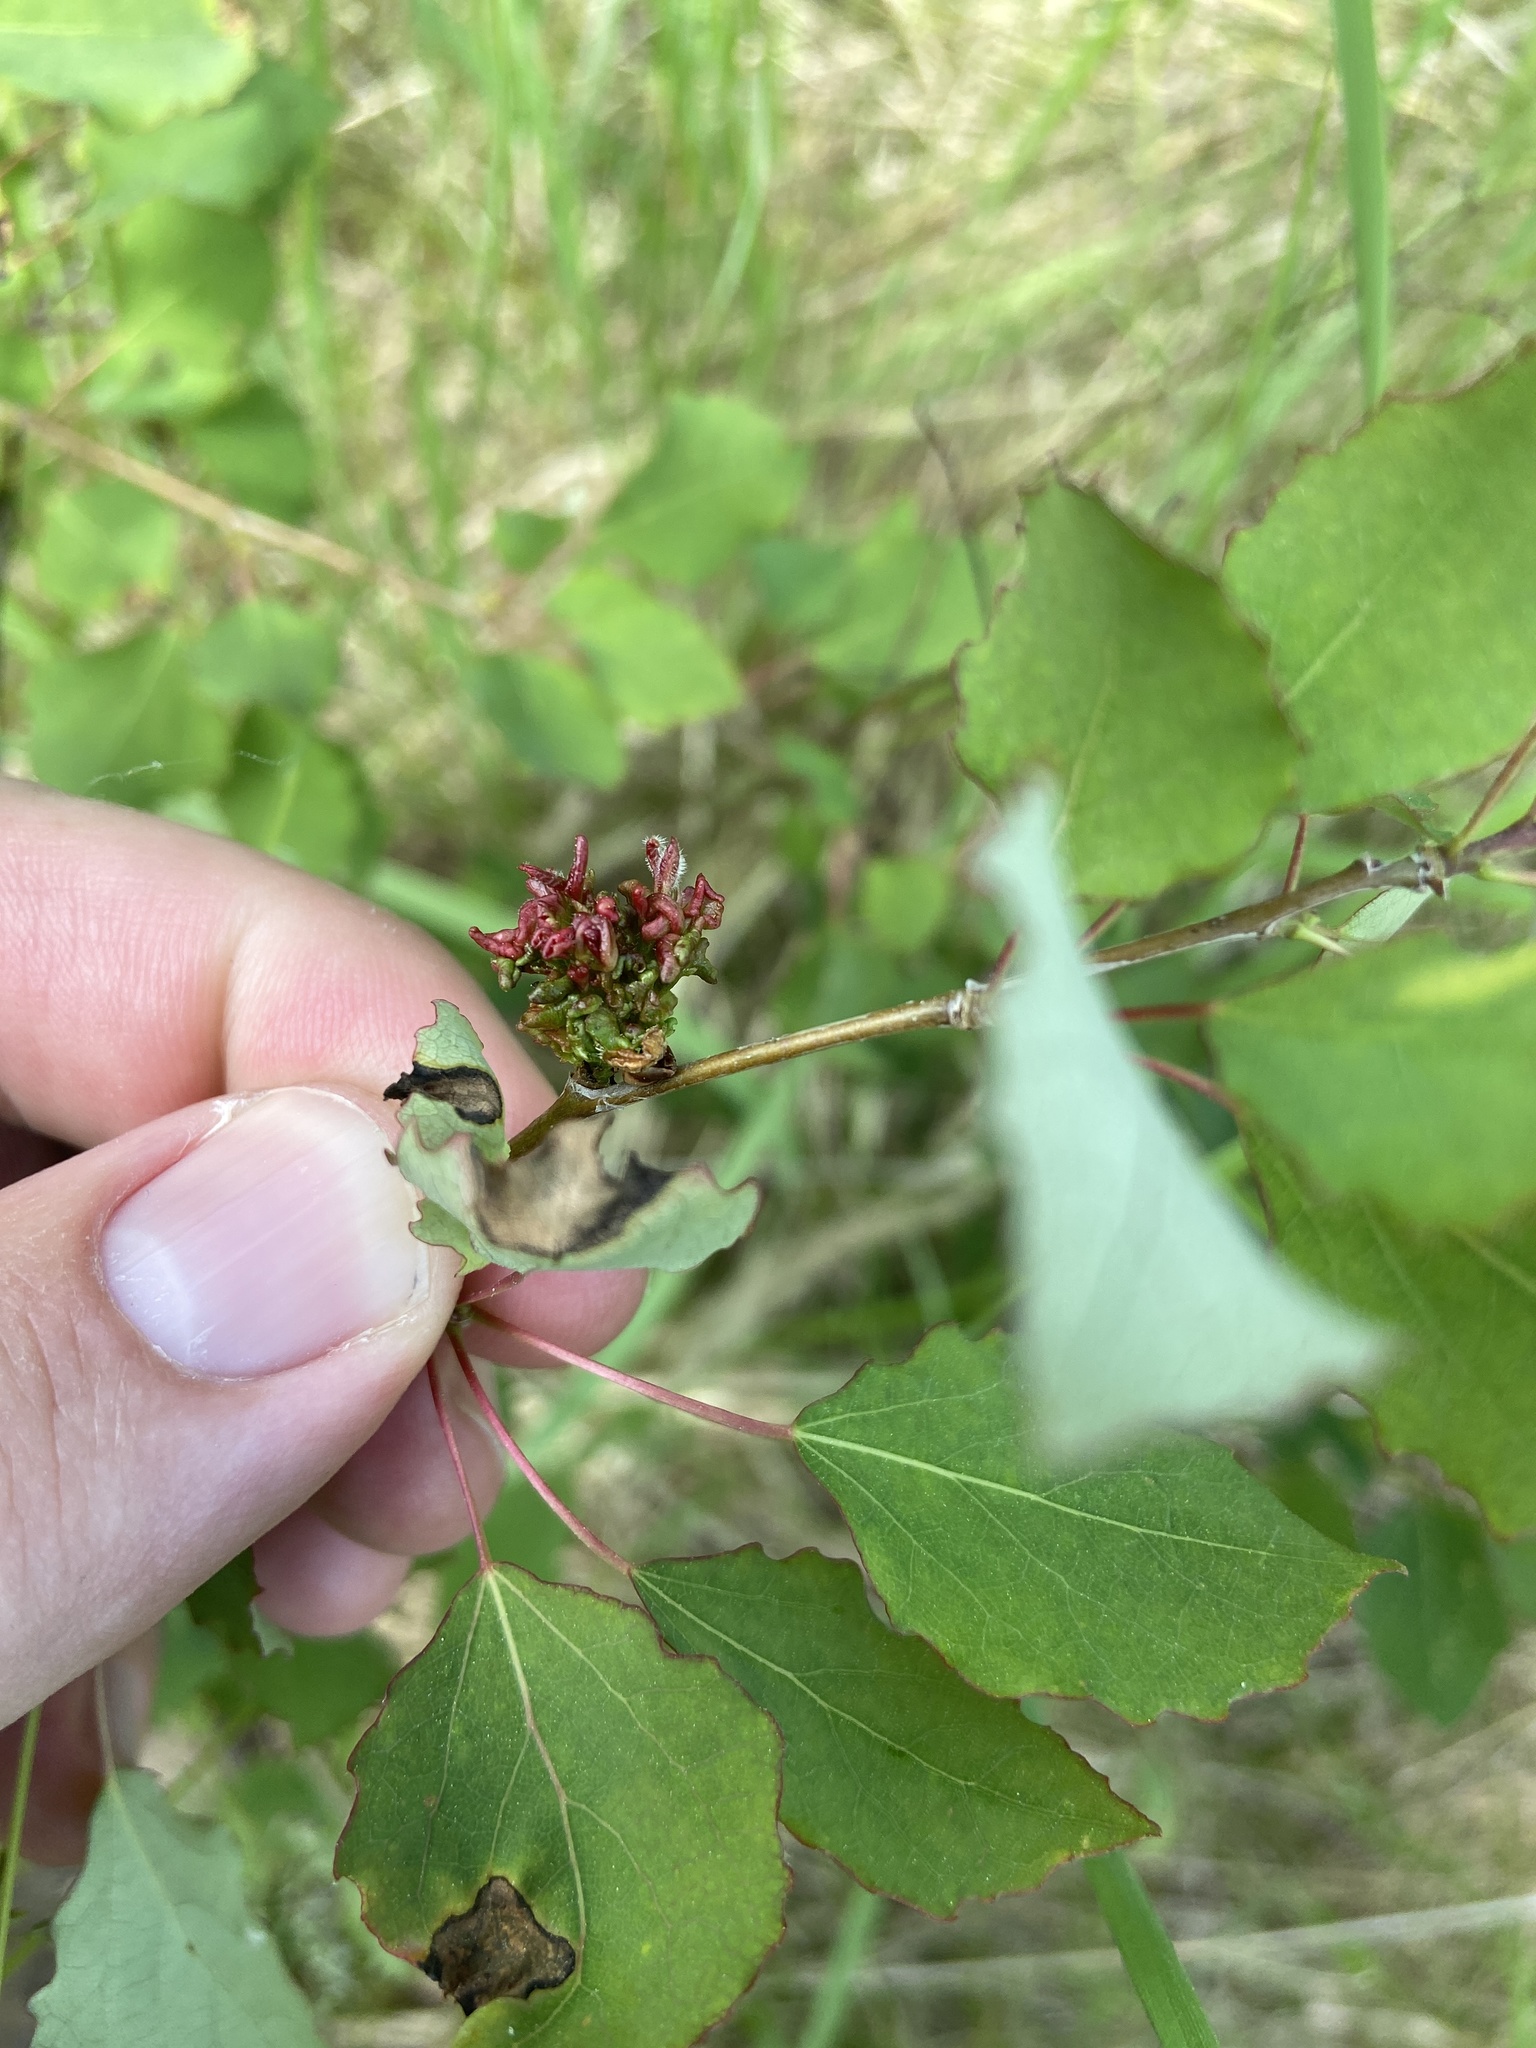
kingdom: Animalia
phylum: Arthropoda
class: Arachnida
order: Trombidiformes
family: Eriophyidae
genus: Aceria
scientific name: Aceria dispar
